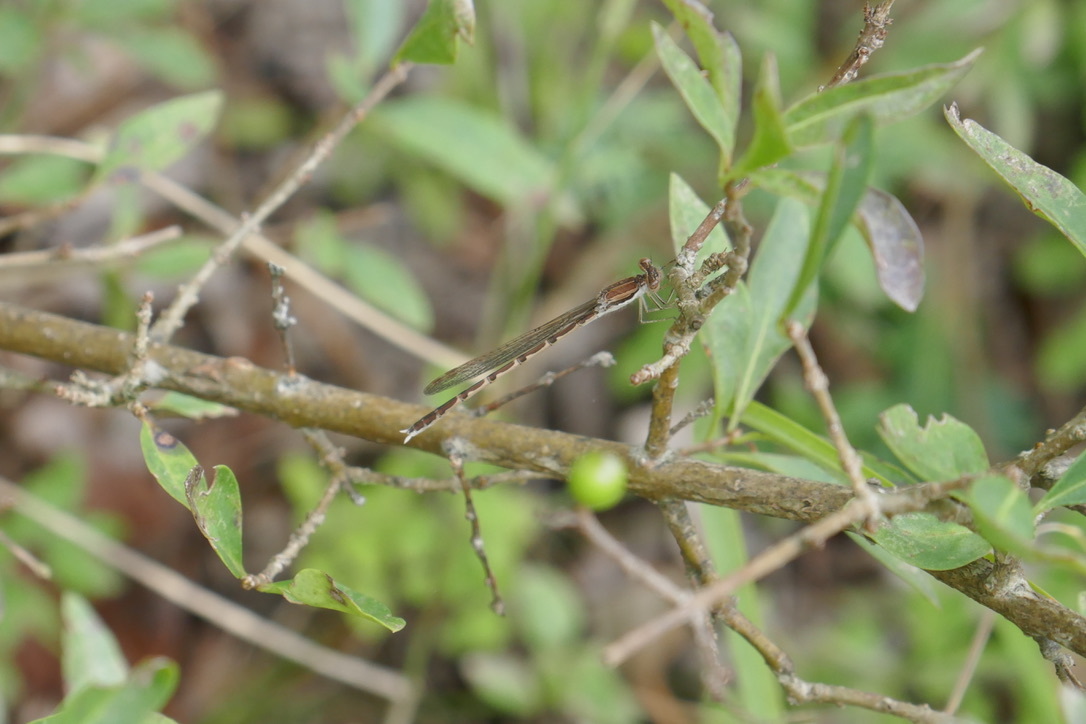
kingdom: Animalia
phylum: Arthropoda
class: Insecta
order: Odonata
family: Lestidae
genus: Sympecma
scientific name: Sympecma fusca
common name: Common winter damsel
